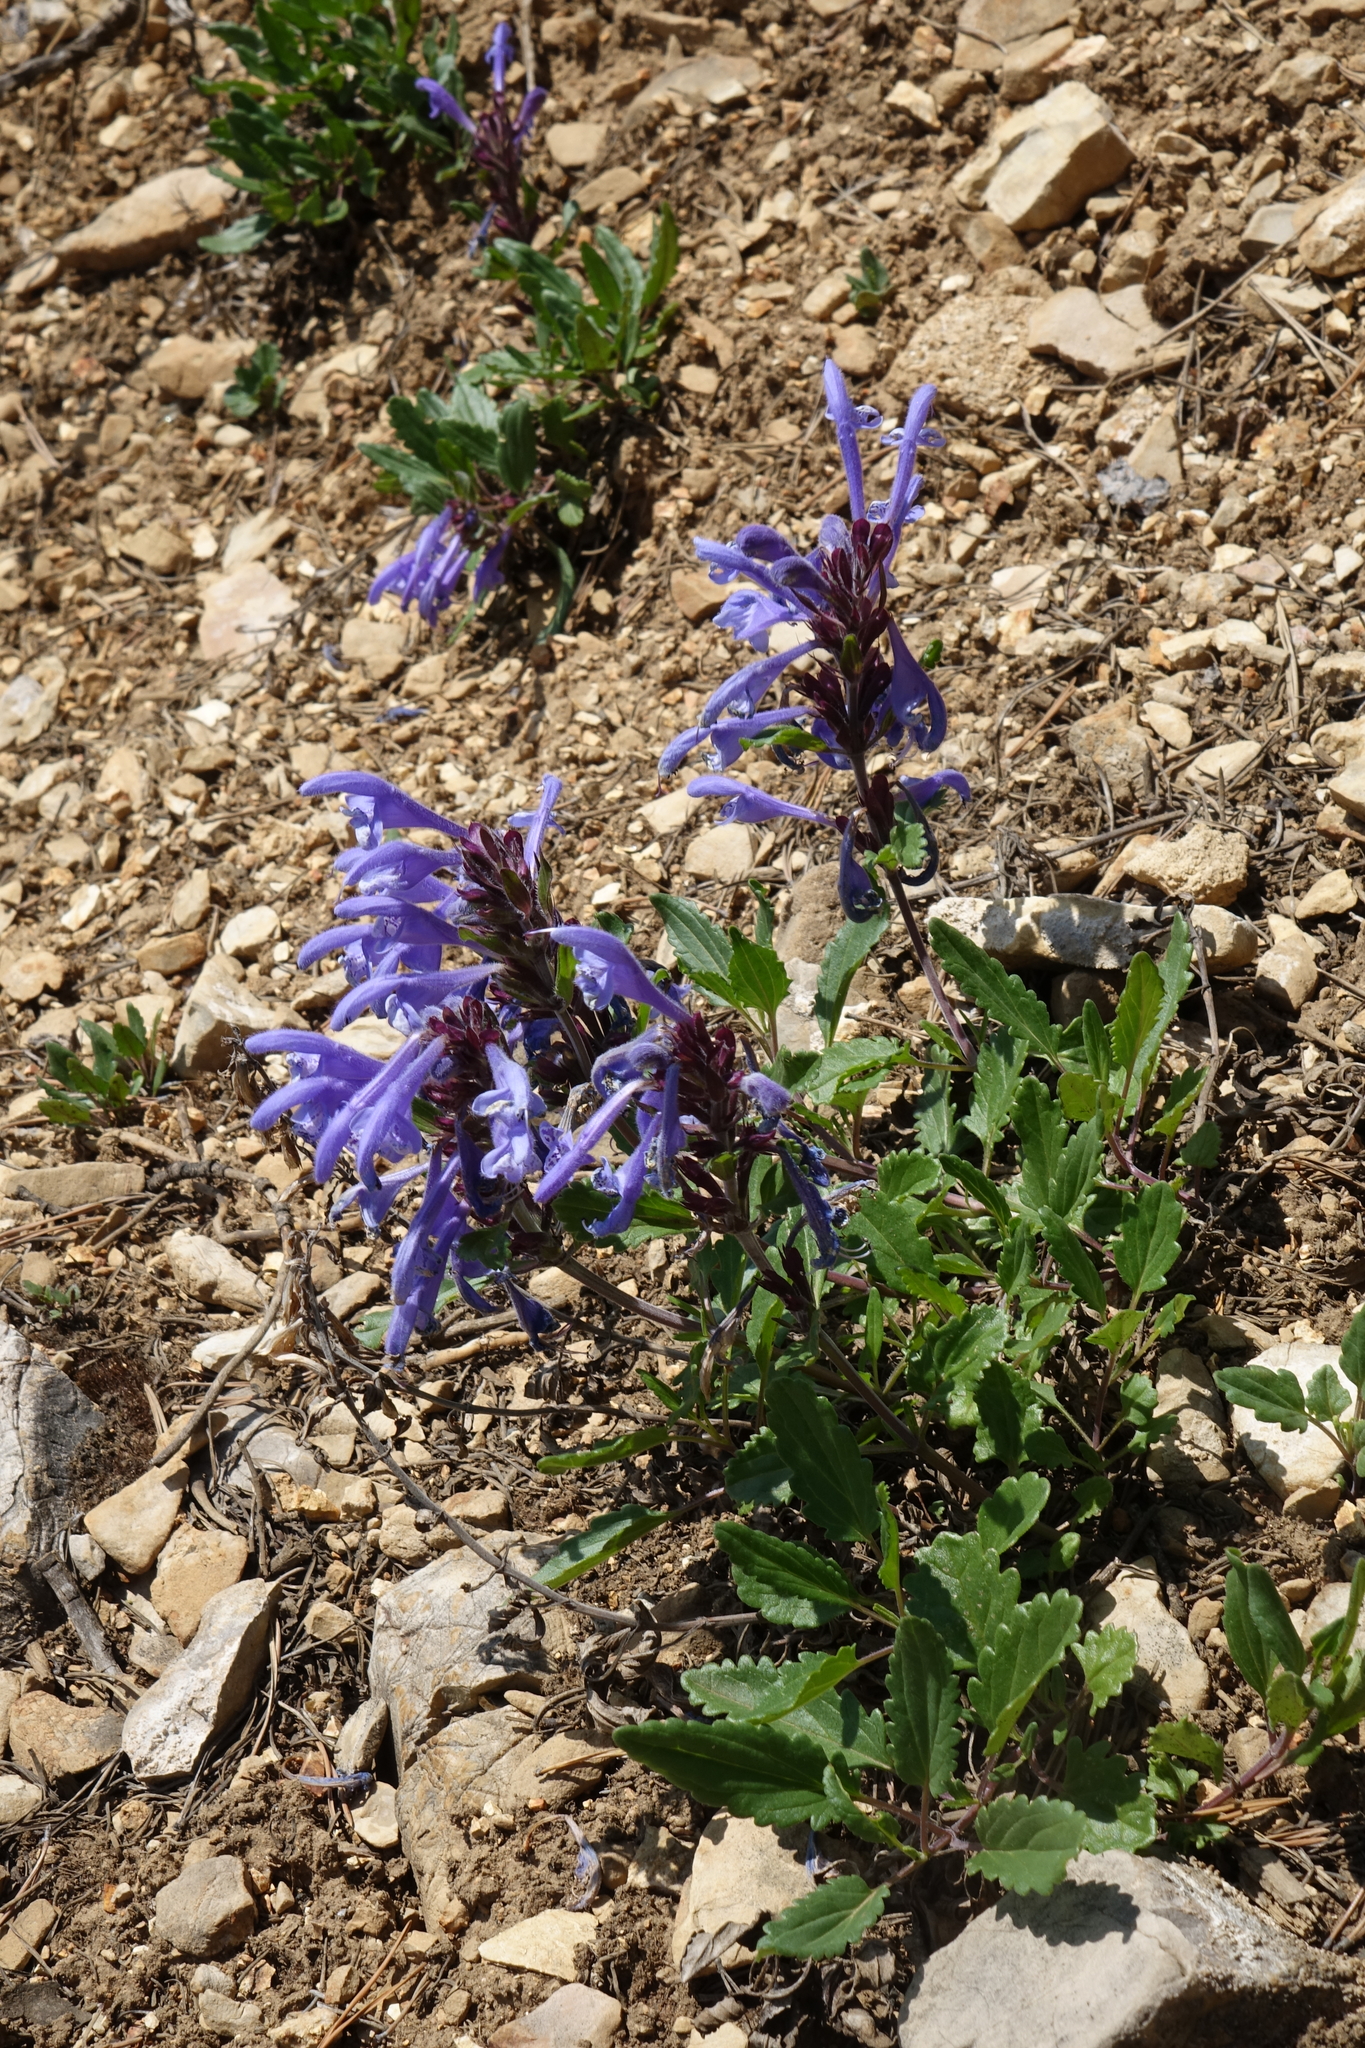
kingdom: Plantae
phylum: Tracheophyta
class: Magnoliopsida
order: Lamiales
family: Lamiaceae
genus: Dracocephalum
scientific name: Dracocephalum stellerianum
